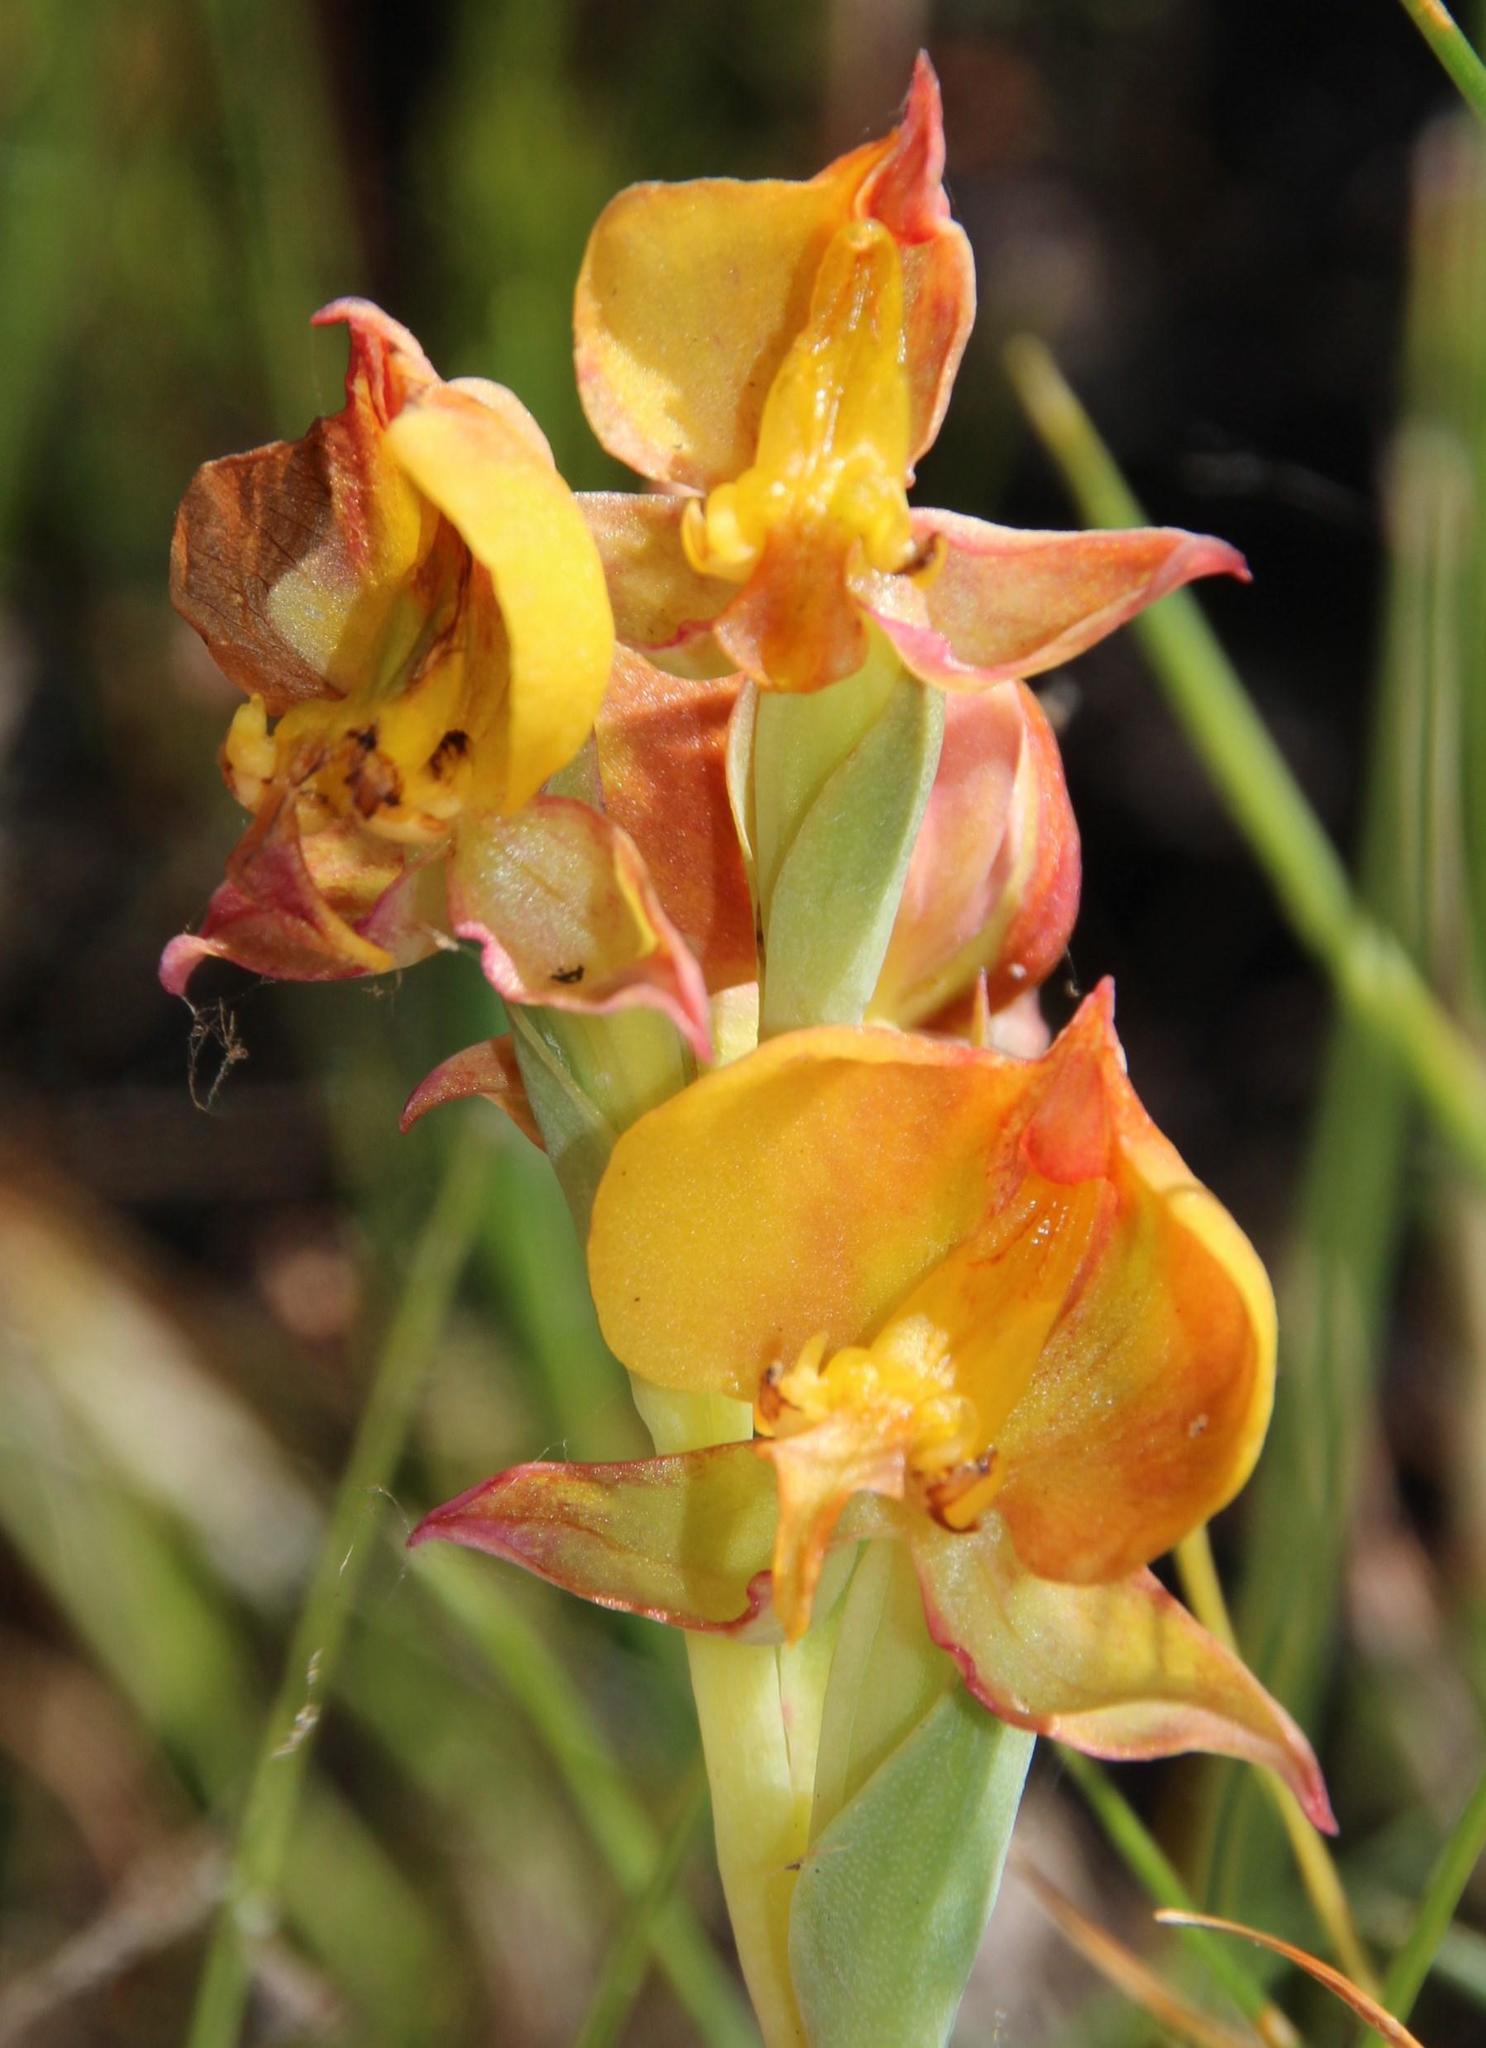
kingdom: Plantae
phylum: Tracheophyta
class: Liliopsida
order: Asparagales
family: Orchidaceae
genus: Pterygodium
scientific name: Pterygodium acutifolium
